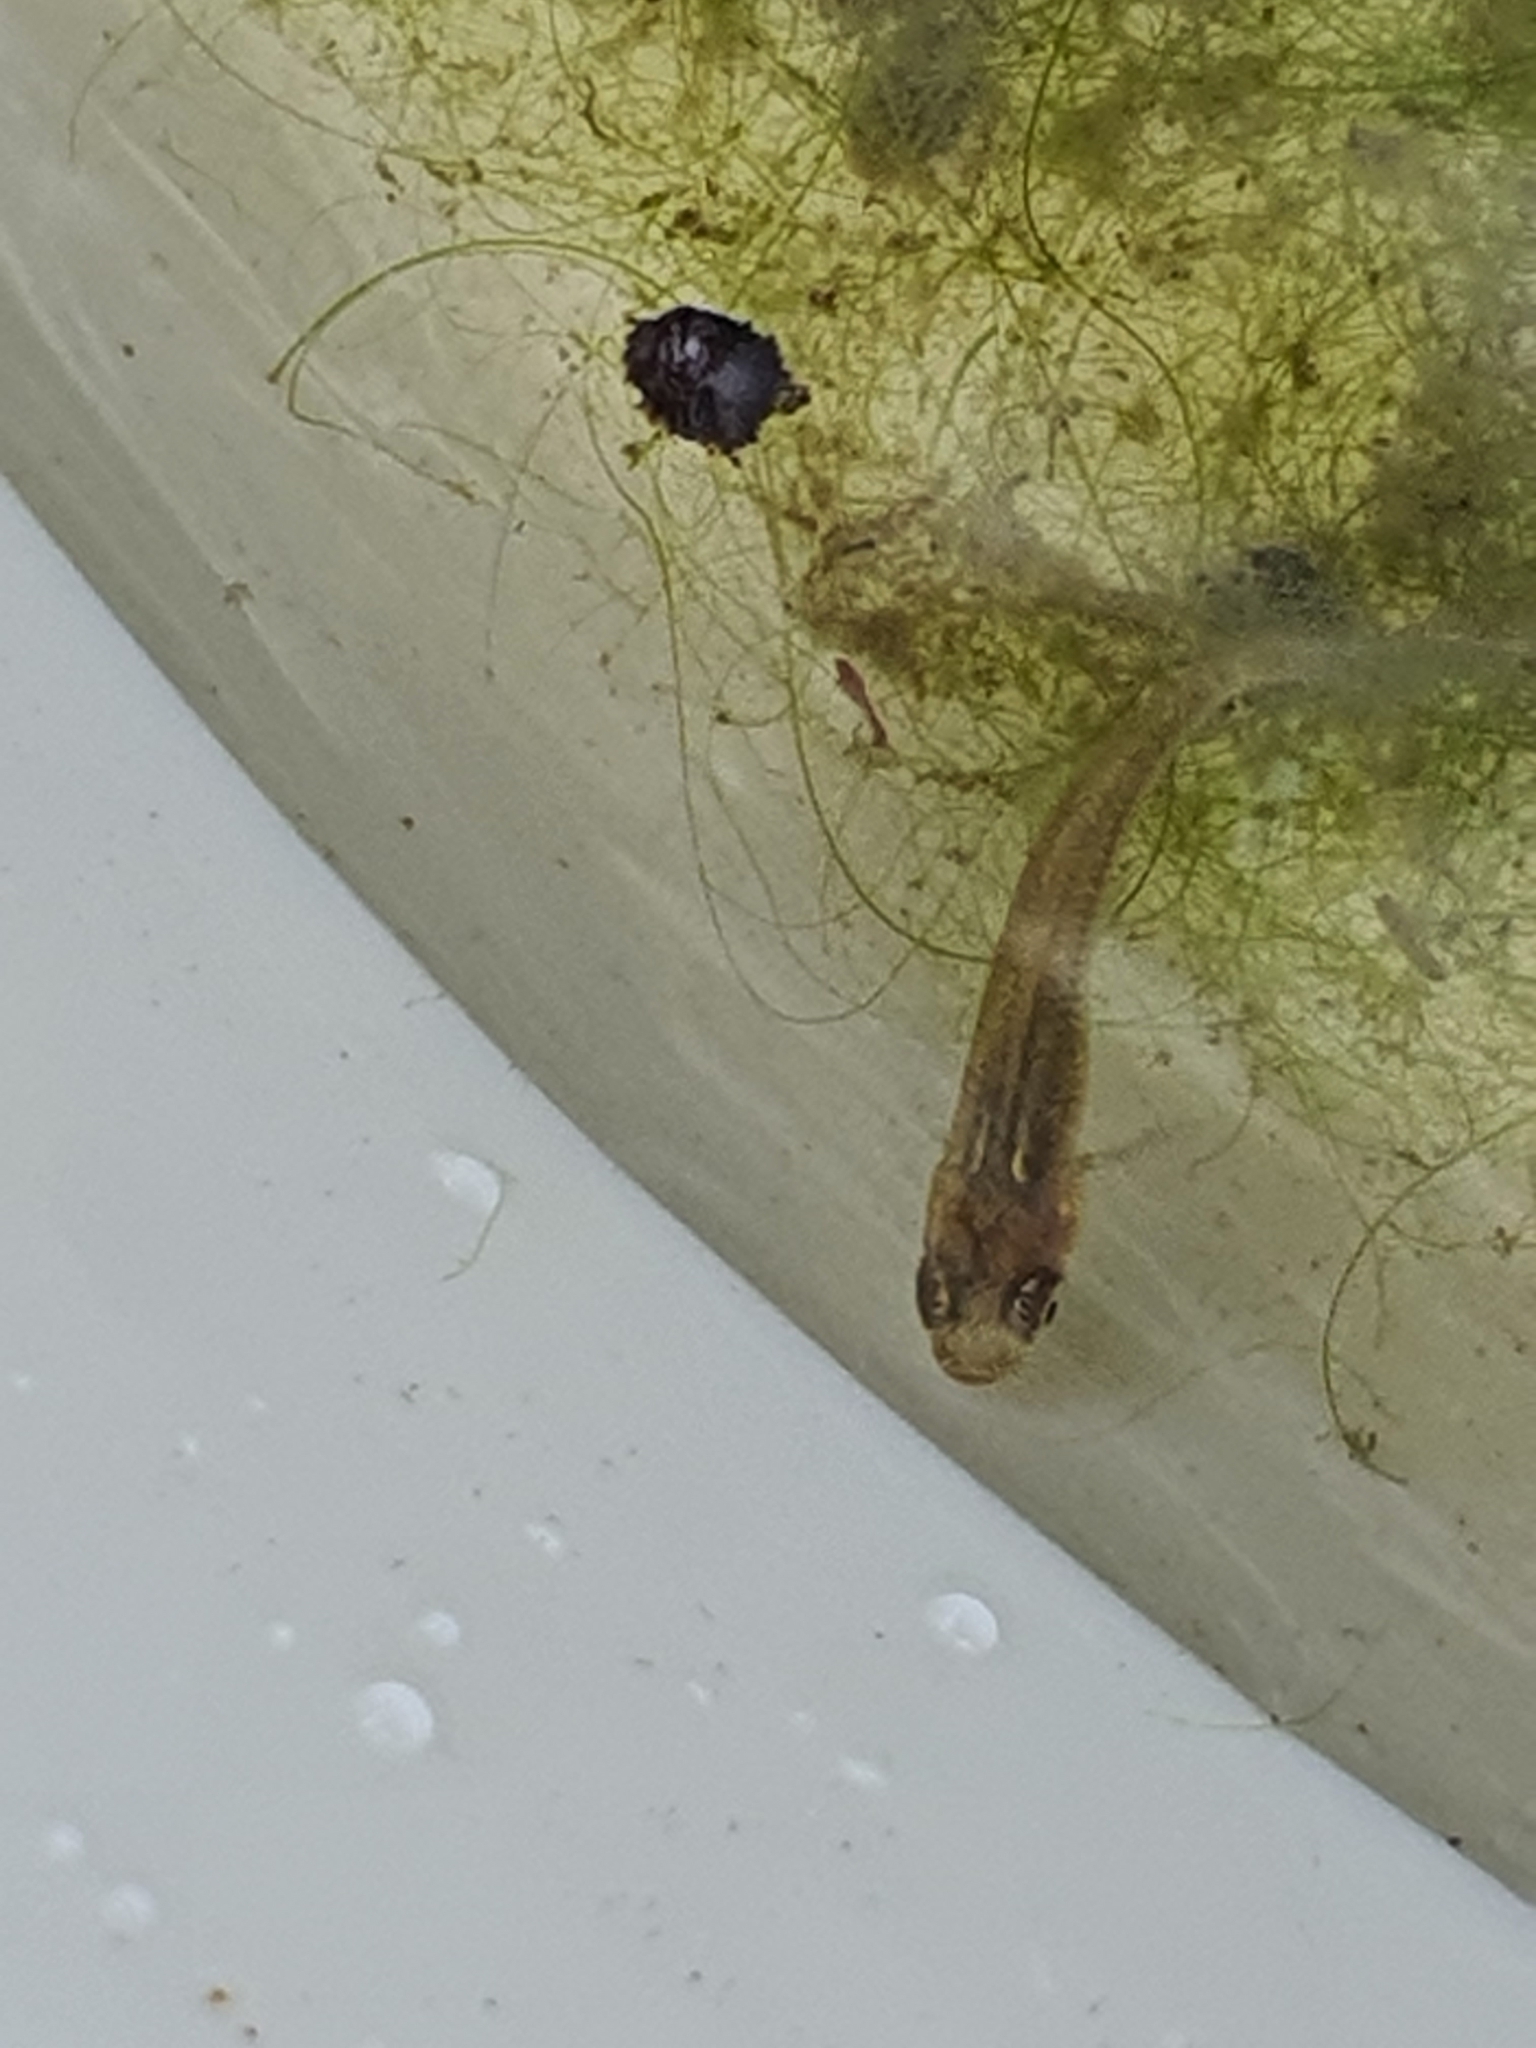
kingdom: Animalia
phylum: Chordata
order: Cyprinodontiformes
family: Poeciliidae
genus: Gambusia
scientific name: Gambusia holbrooki
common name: Eastern mosquitofish
